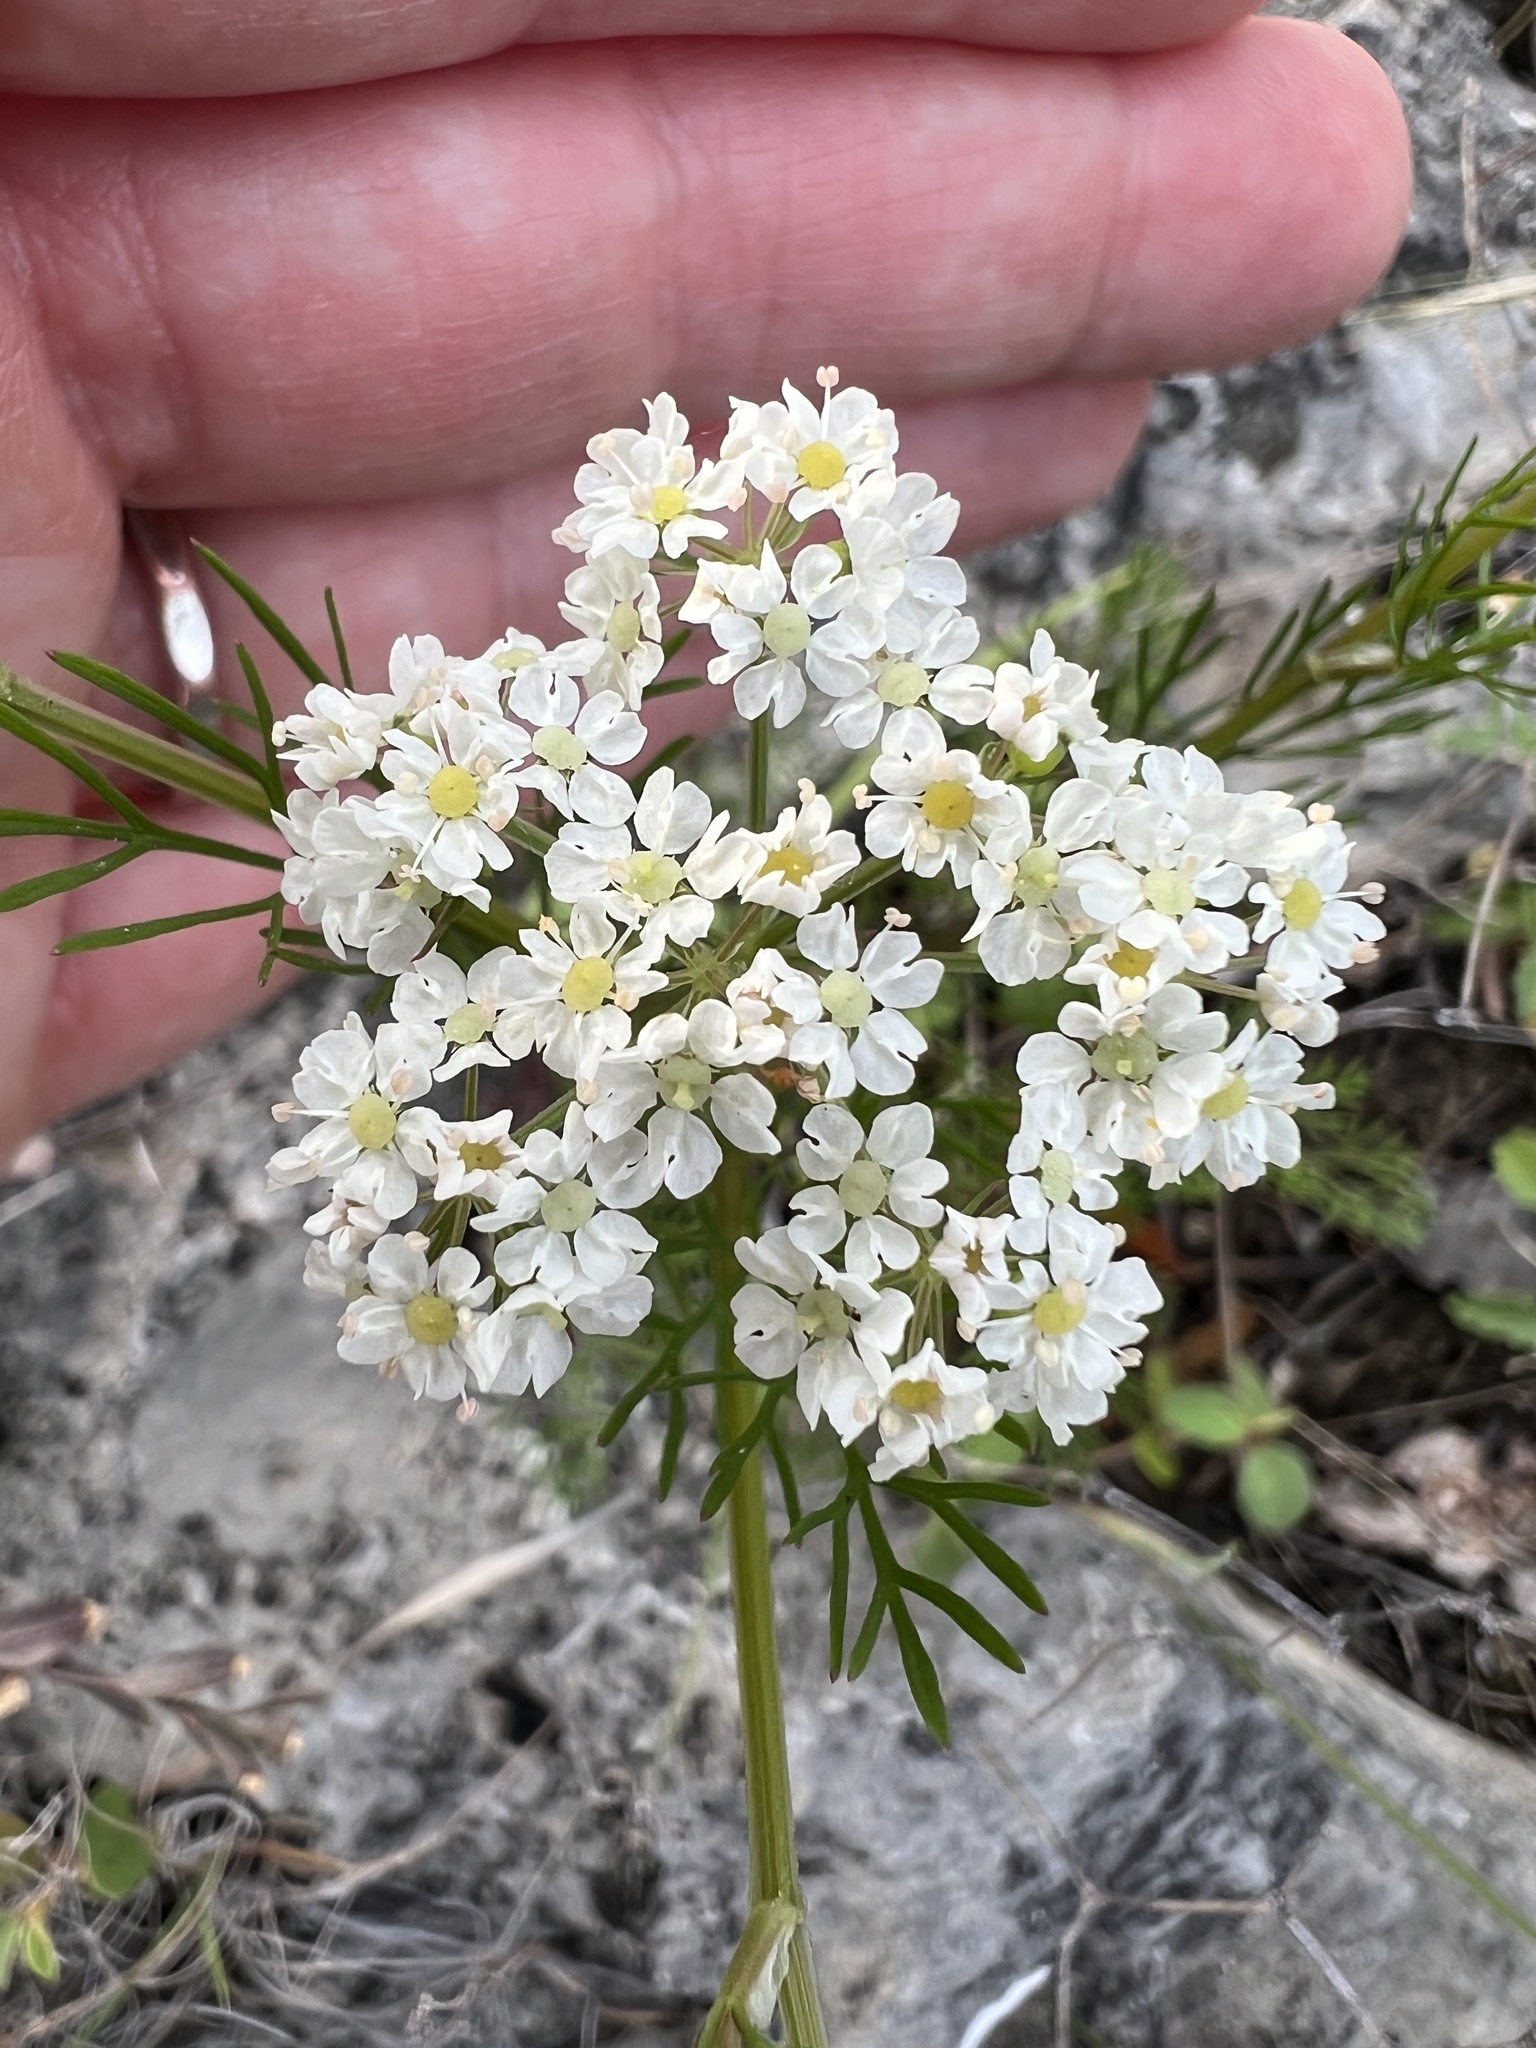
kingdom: Plantae
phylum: Tracheophyta
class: Magnoliopsida
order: Apiales
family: Apiaceae
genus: Atrema
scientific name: Atrema americanum
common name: Prairie-bishop
